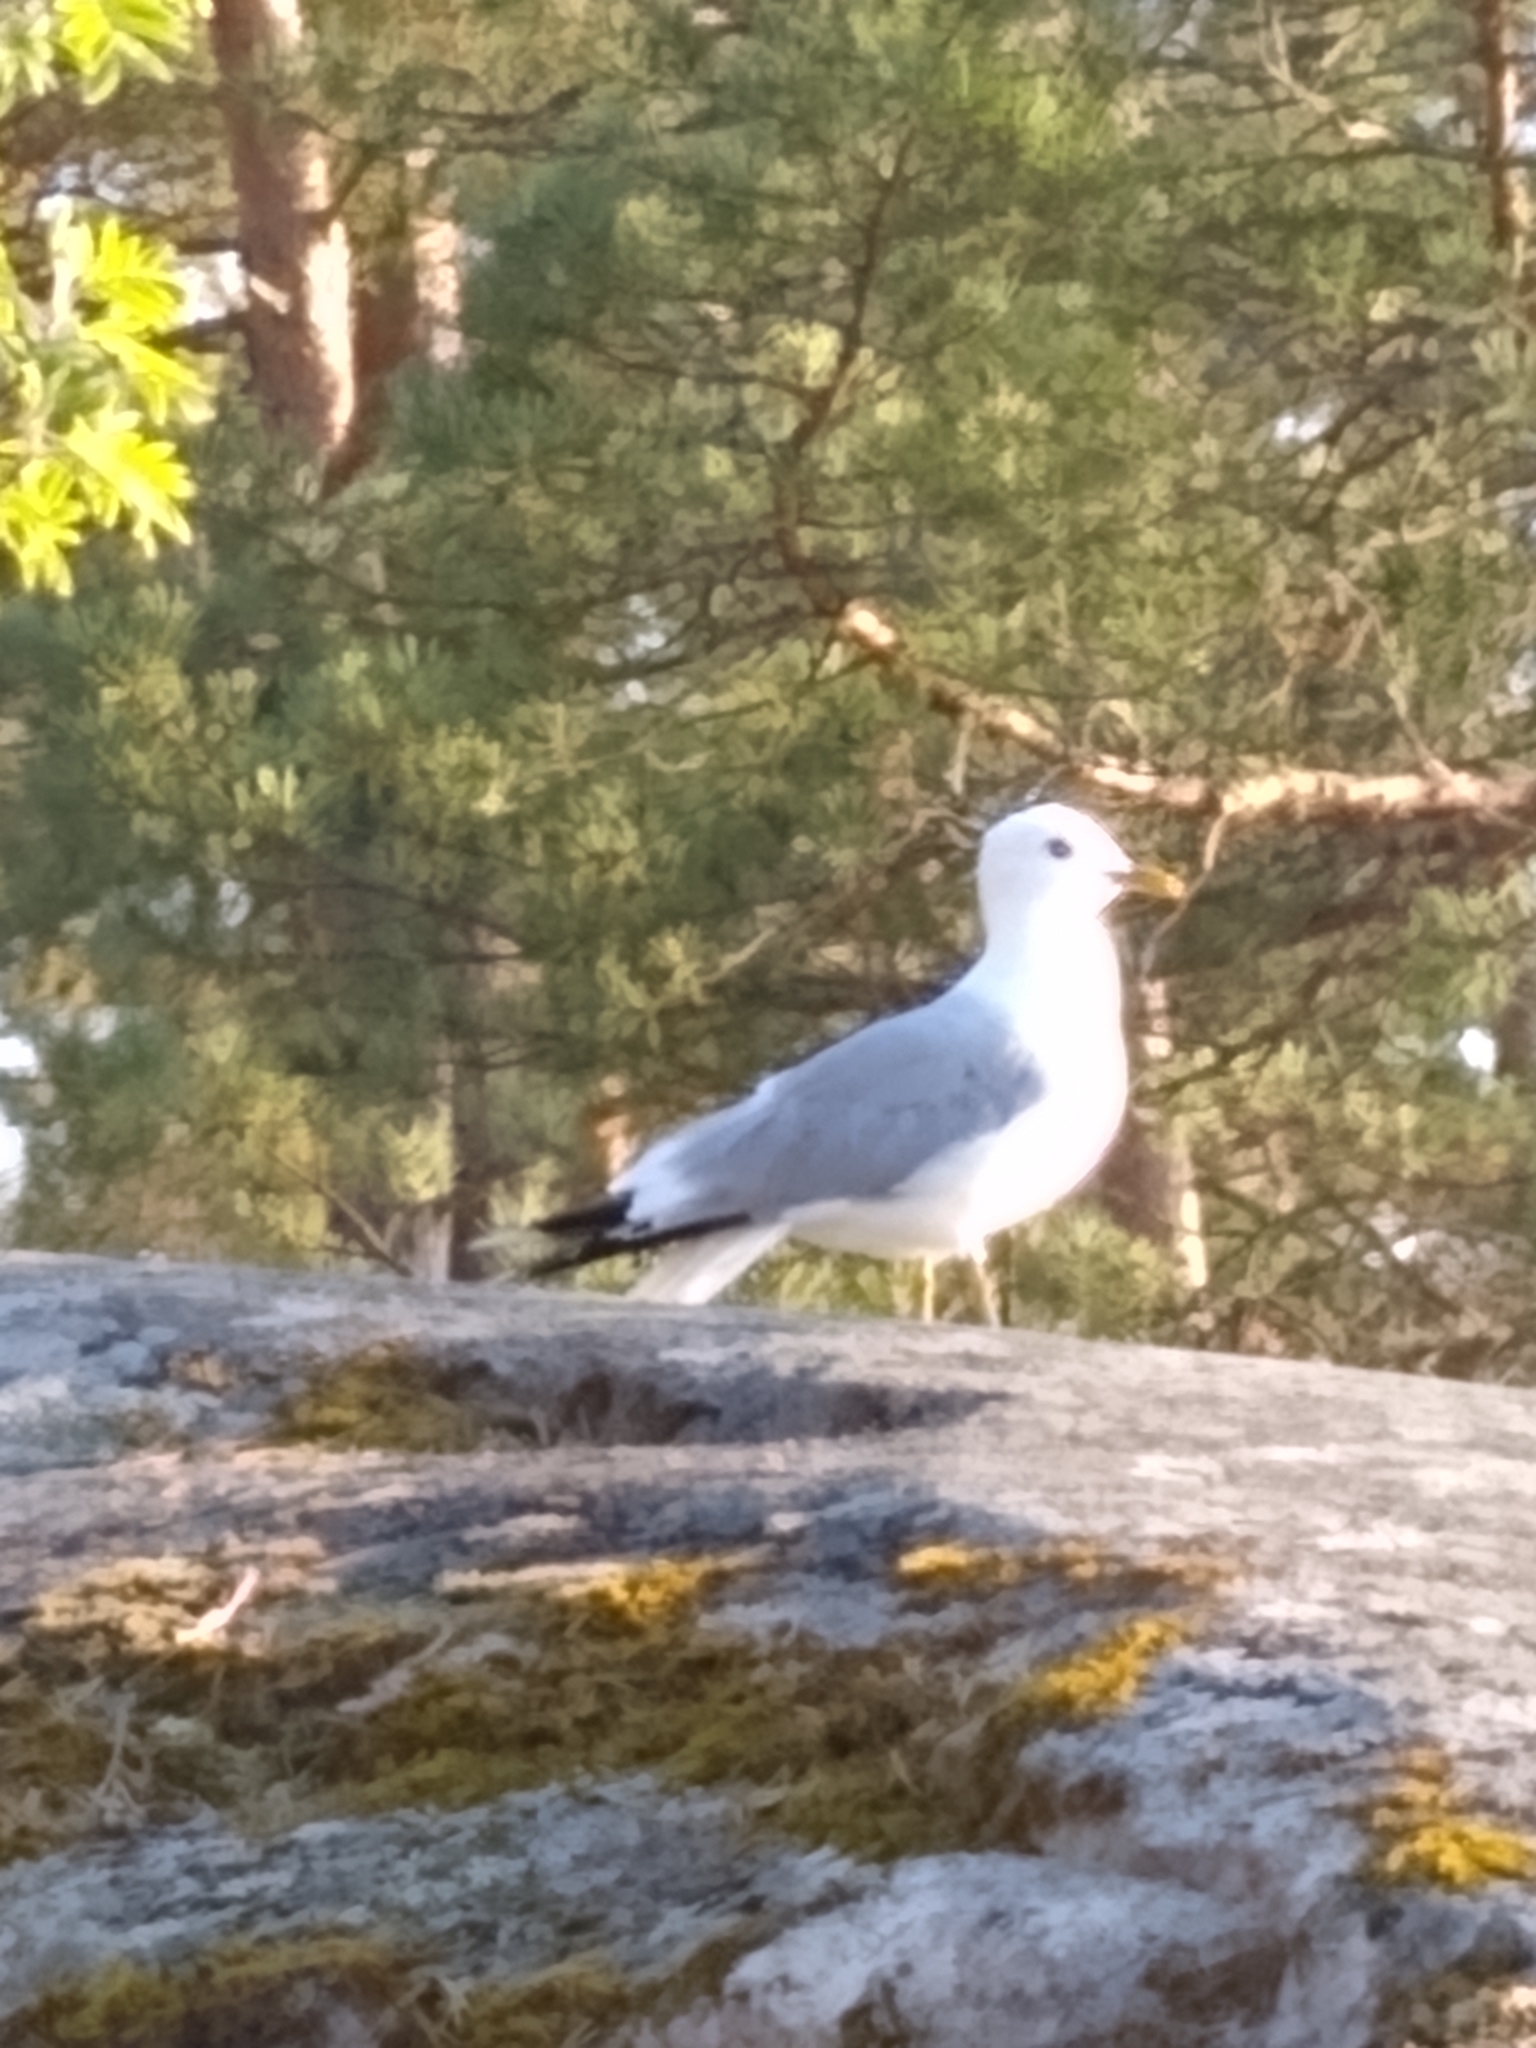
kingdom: Animalia
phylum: Chordata
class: Aves
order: Charadriiformes
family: Laridae
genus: Larus
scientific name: Larus canus
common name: Mew gull
